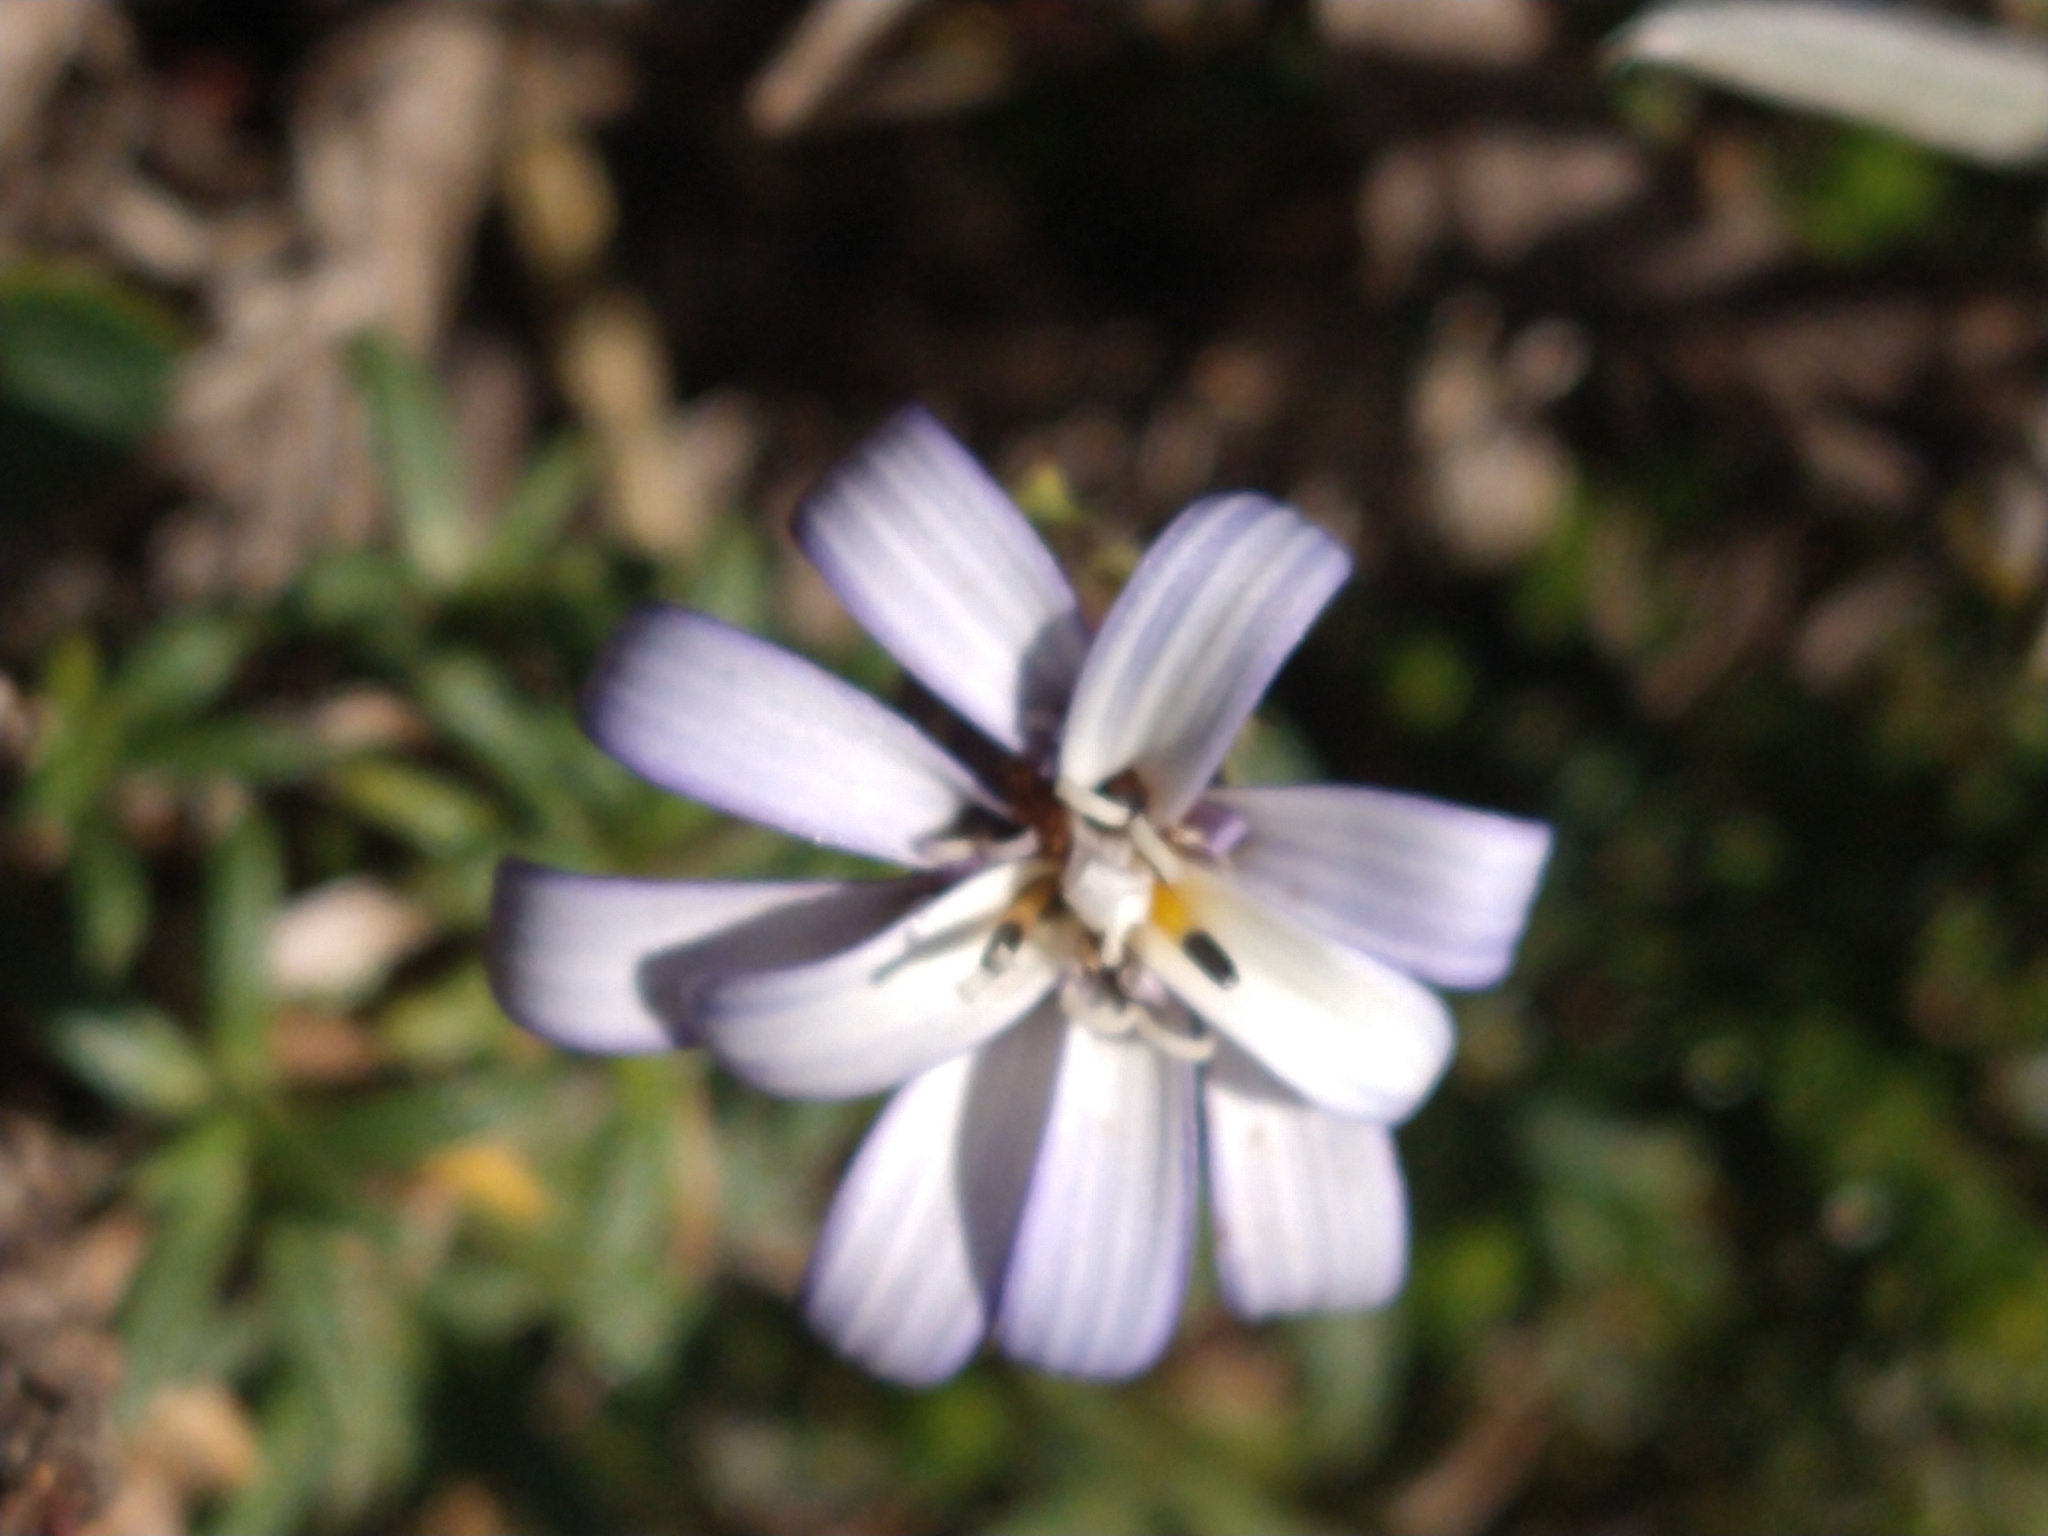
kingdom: Plantae
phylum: Tracheophyta
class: Magnoliopsida
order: Asterales
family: Asteraceae
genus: Perezia
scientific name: Perezia recurvata
